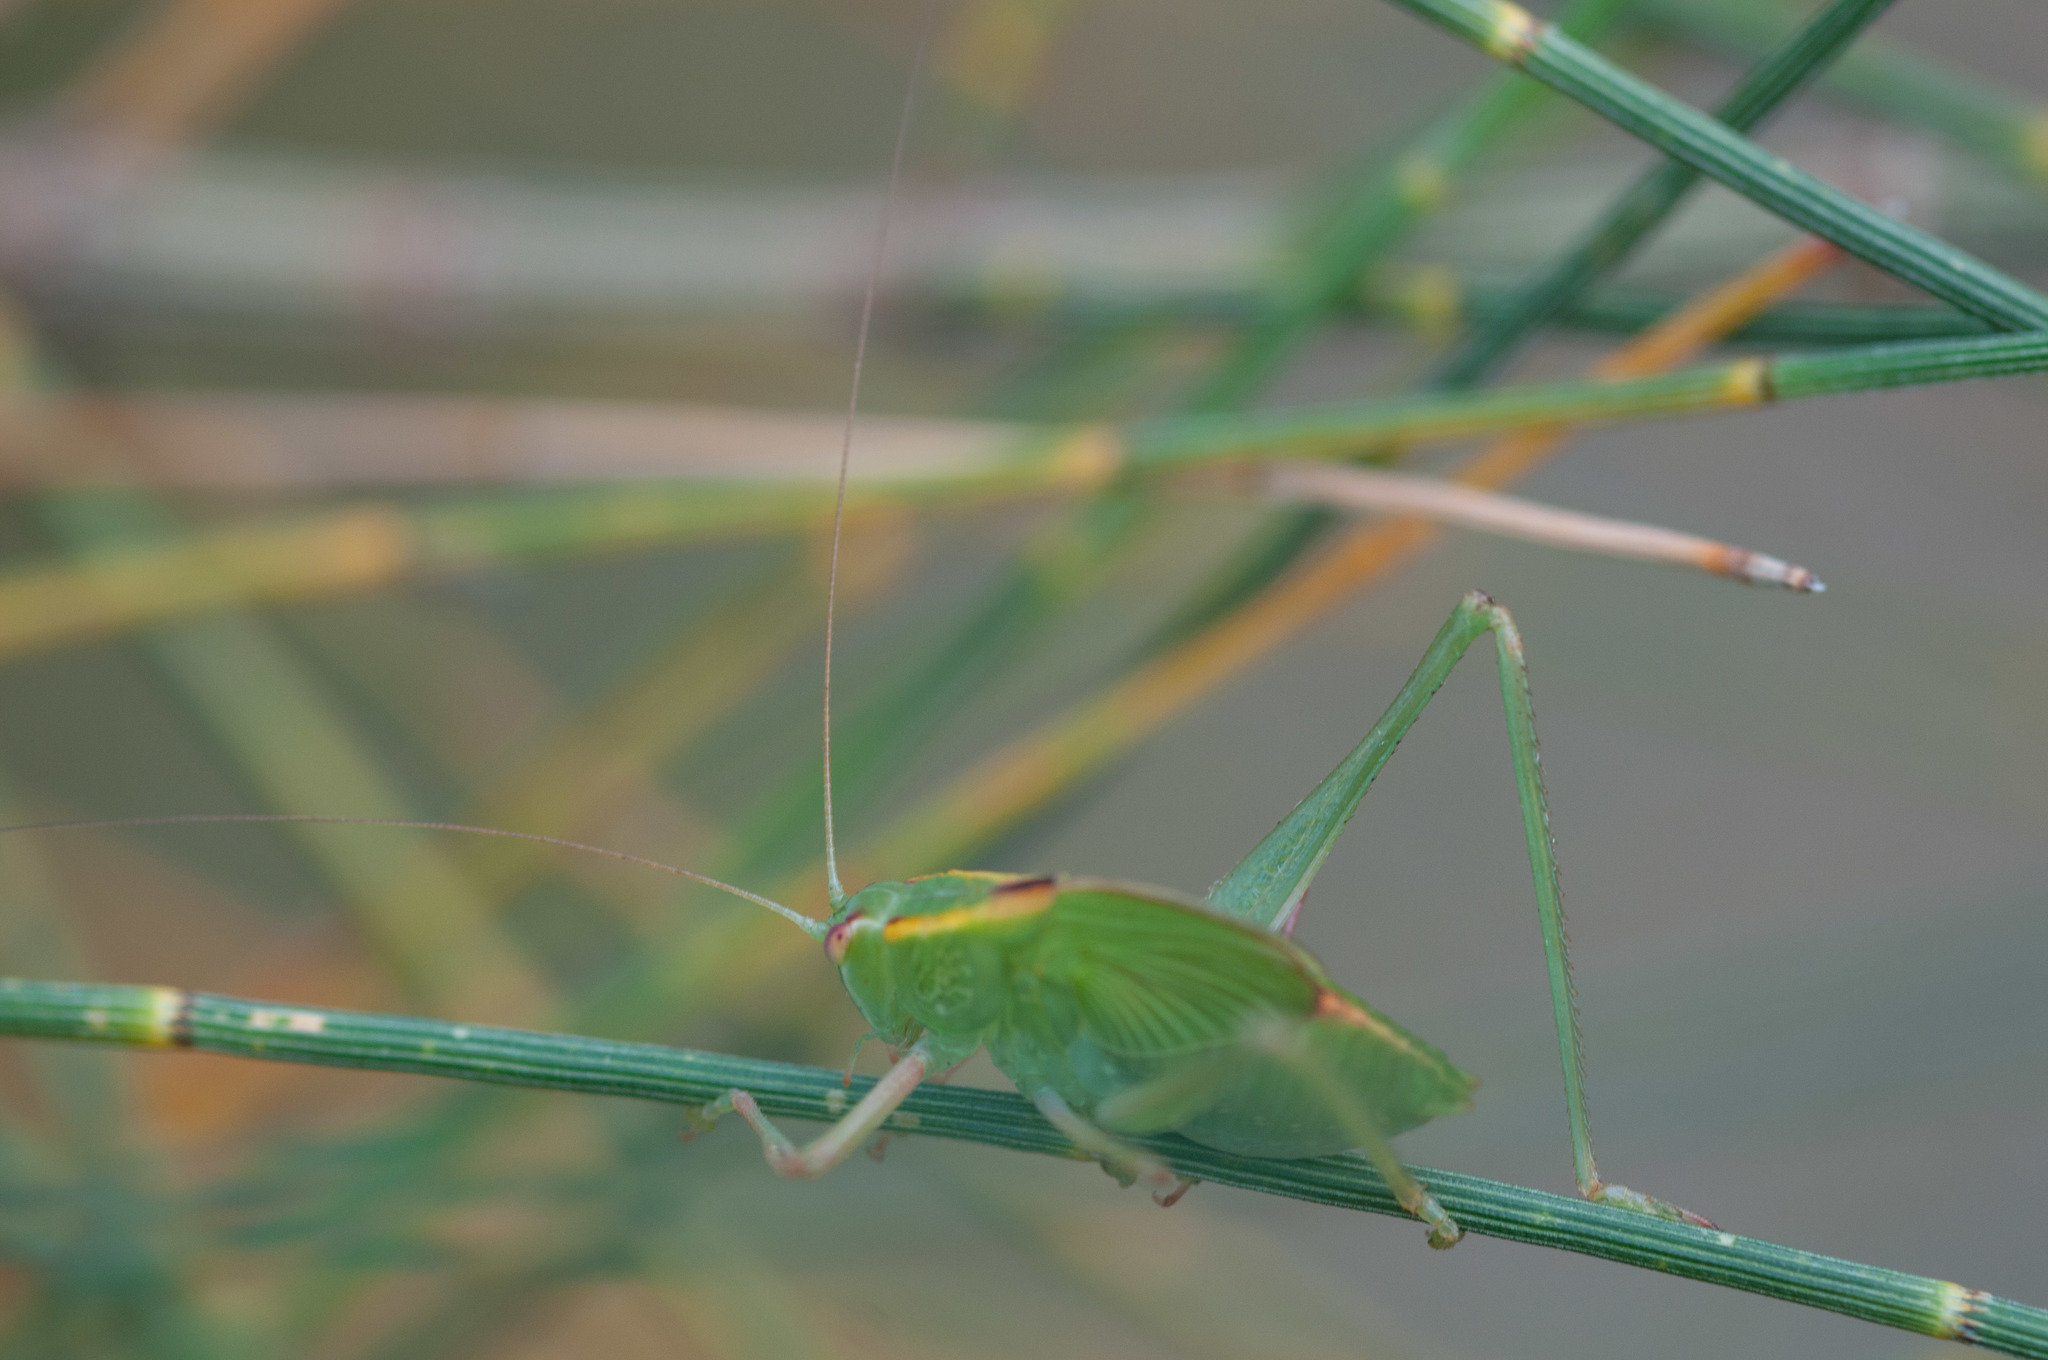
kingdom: Animalia
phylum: Arthropoda
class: Insecta
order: Orthoptera
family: Tettigoniidae
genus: Caedicia
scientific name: Caedicia simplex
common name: Common garden katydid
